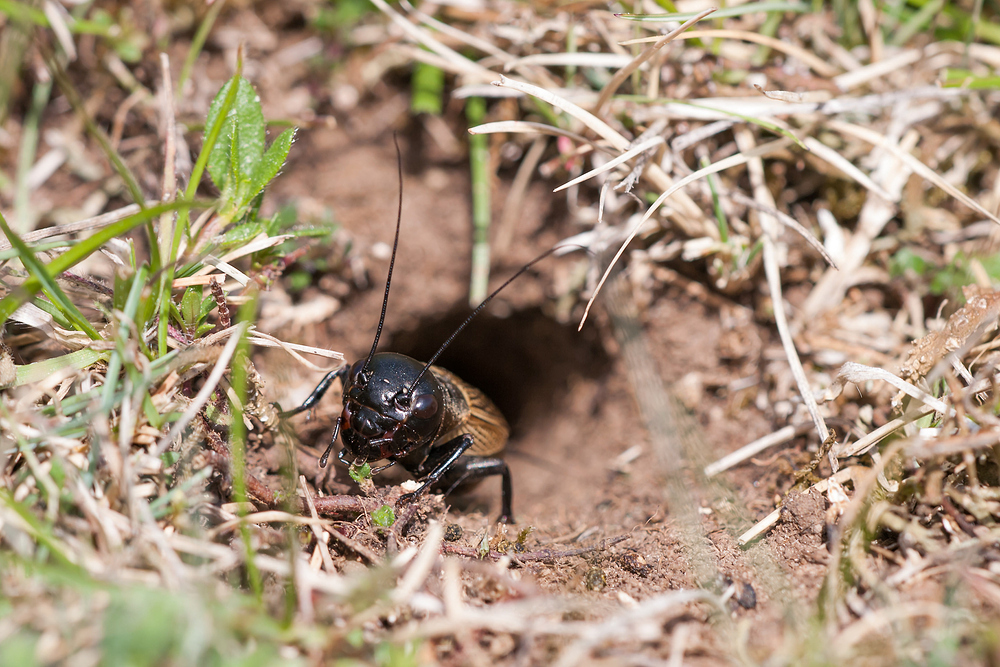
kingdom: Animalia
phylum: Arthropoda
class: Insecta
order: Orthoptera
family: Gryllidae
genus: Gryllus
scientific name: Gryllus campestris
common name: Field cricket
